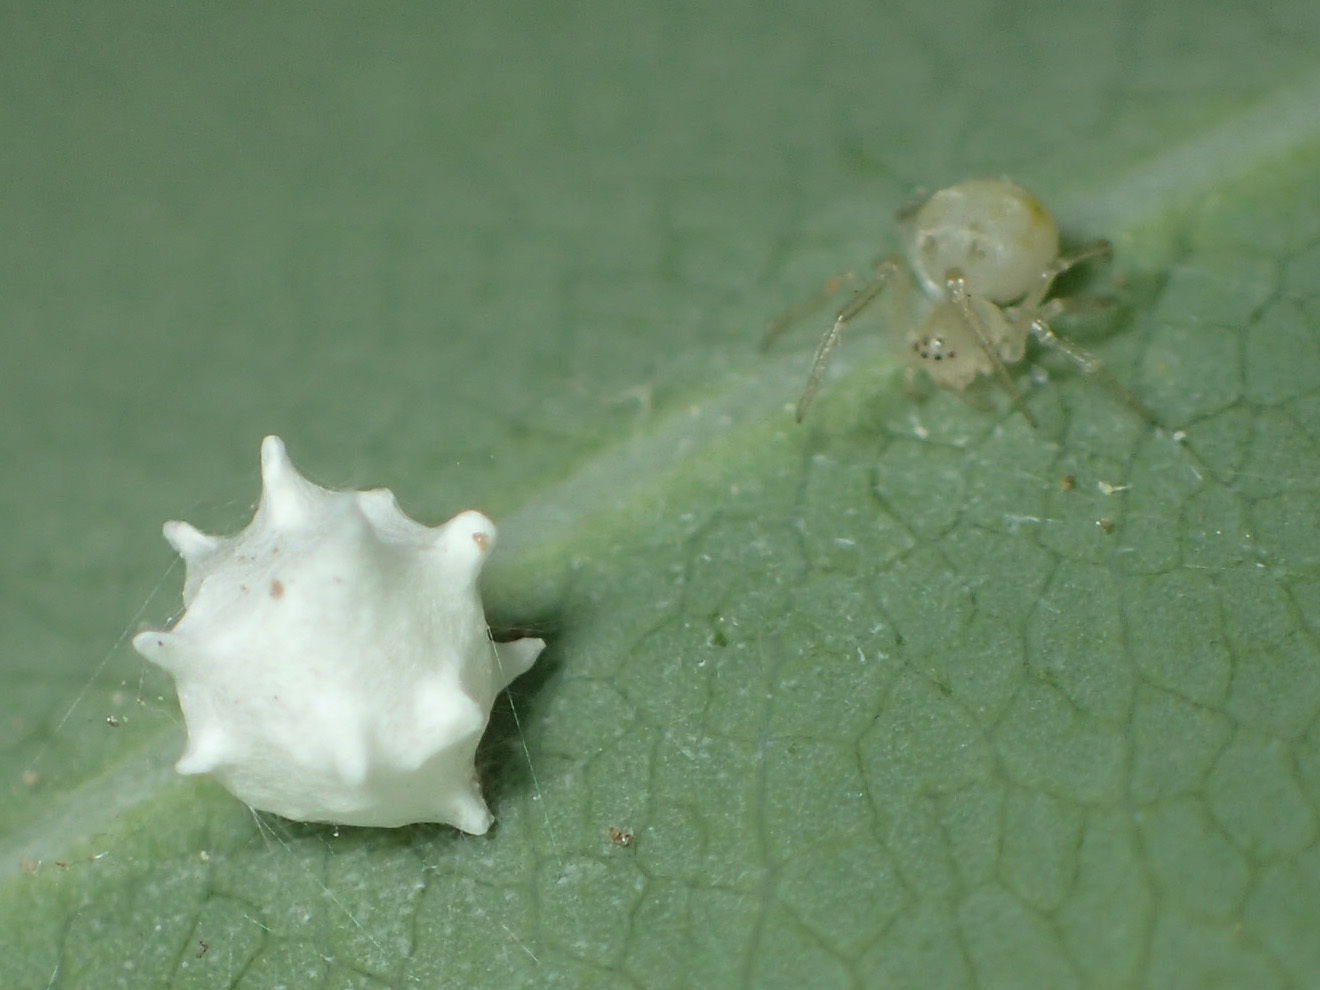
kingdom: Animalia
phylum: Arthropoda
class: Arachnida
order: Araneae
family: Theridiidae
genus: Paidiscura
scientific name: Paidiscura pallens
